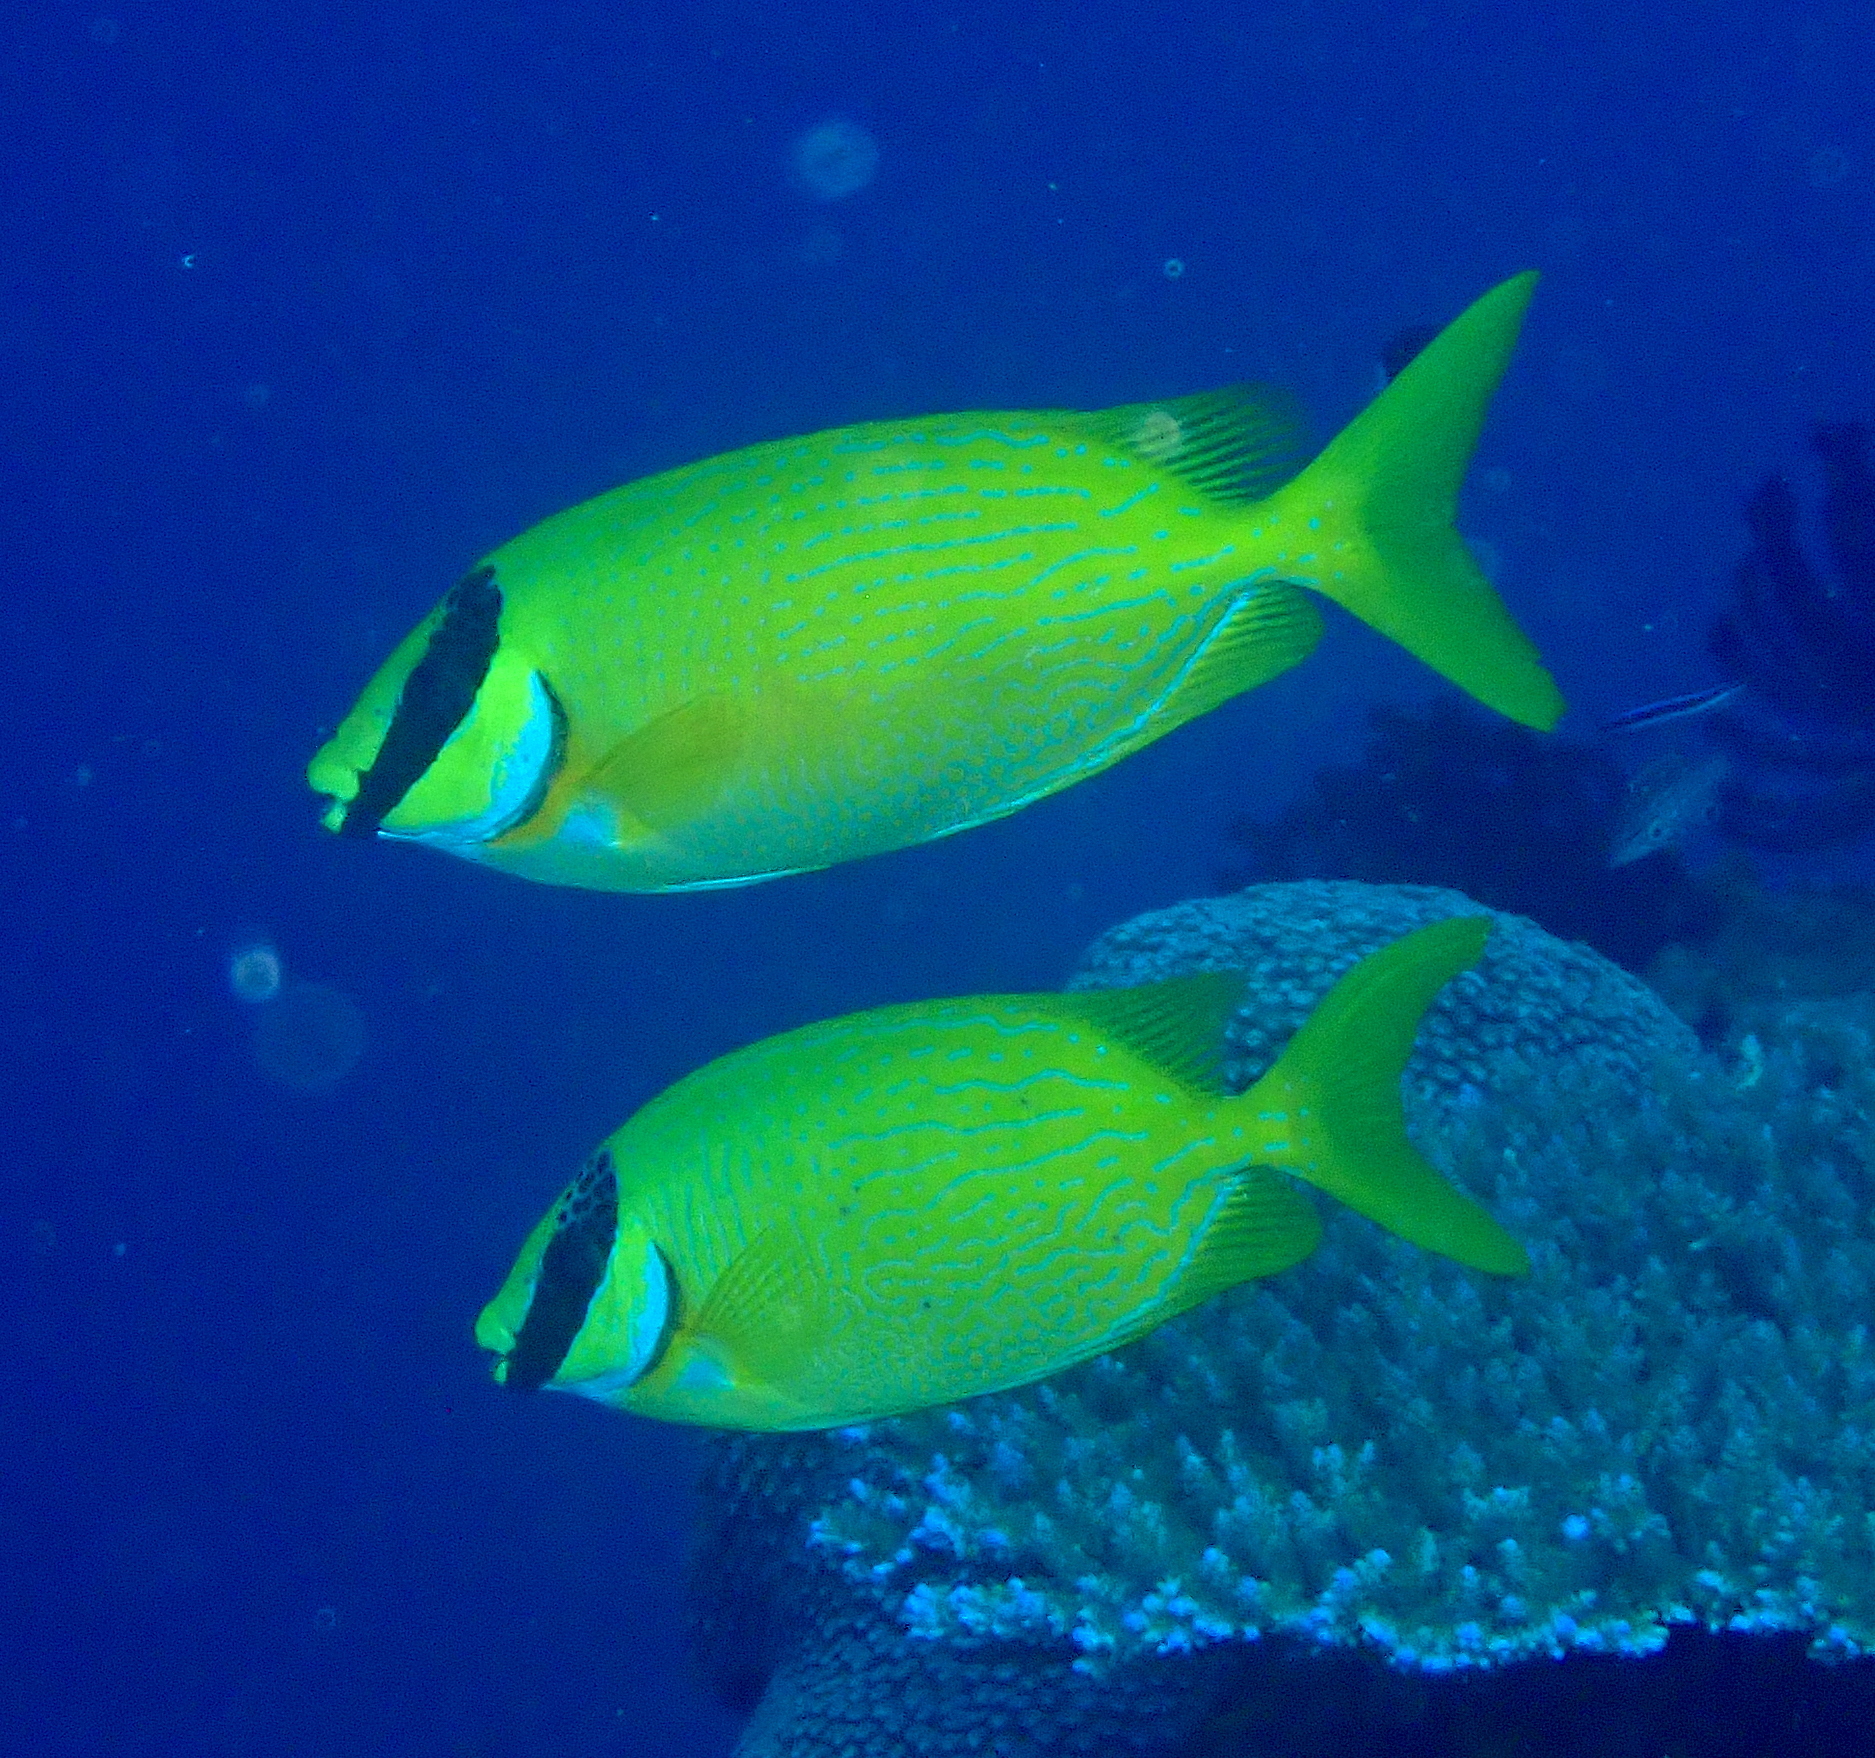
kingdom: Animalia
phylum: Chordata
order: Perciformes
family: Siganidae
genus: Siganus
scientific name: Siganus puellus
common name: Masked rabbitfish
